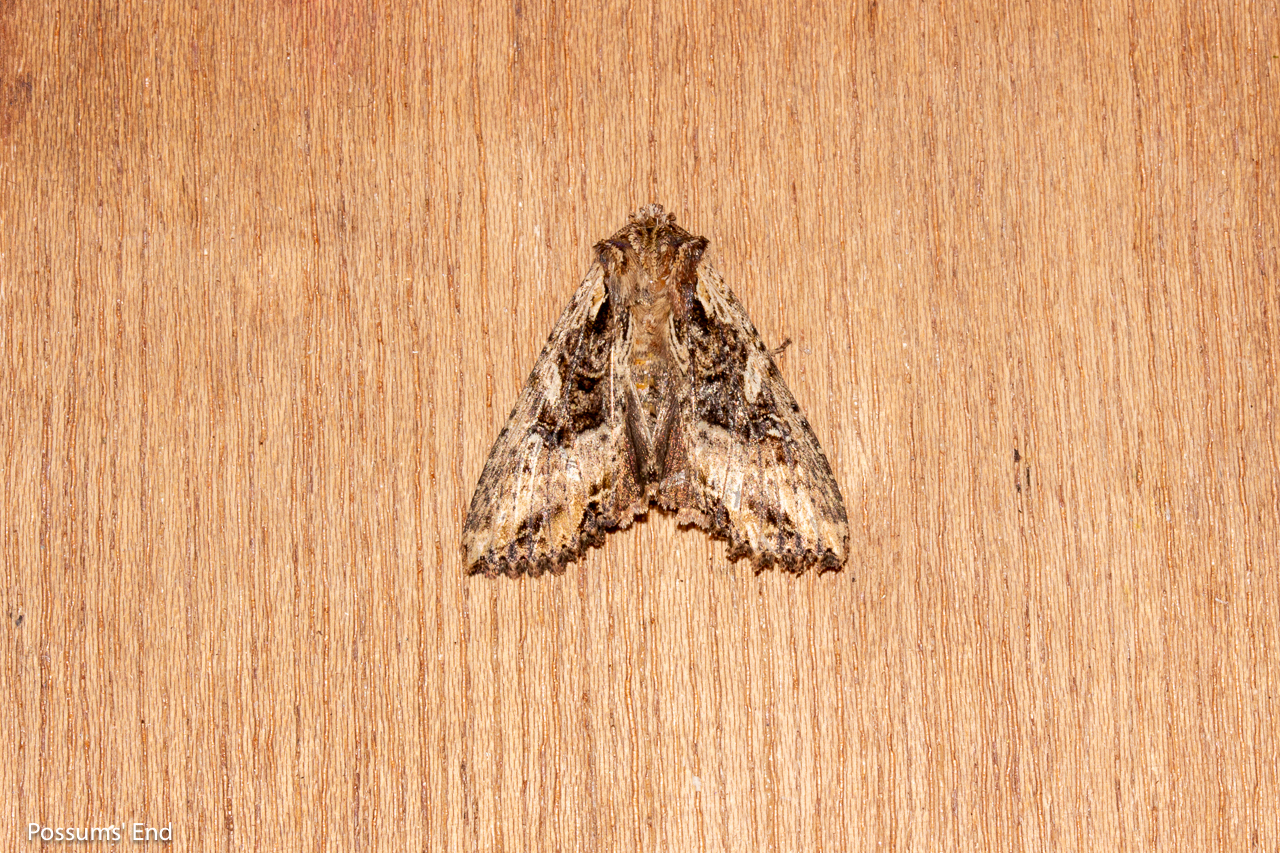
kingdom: Animalia
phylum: Arthropoda
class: Insecta
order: Lepidoptera
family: Noctuidae
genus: Meterana
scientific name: Meterana stipata
